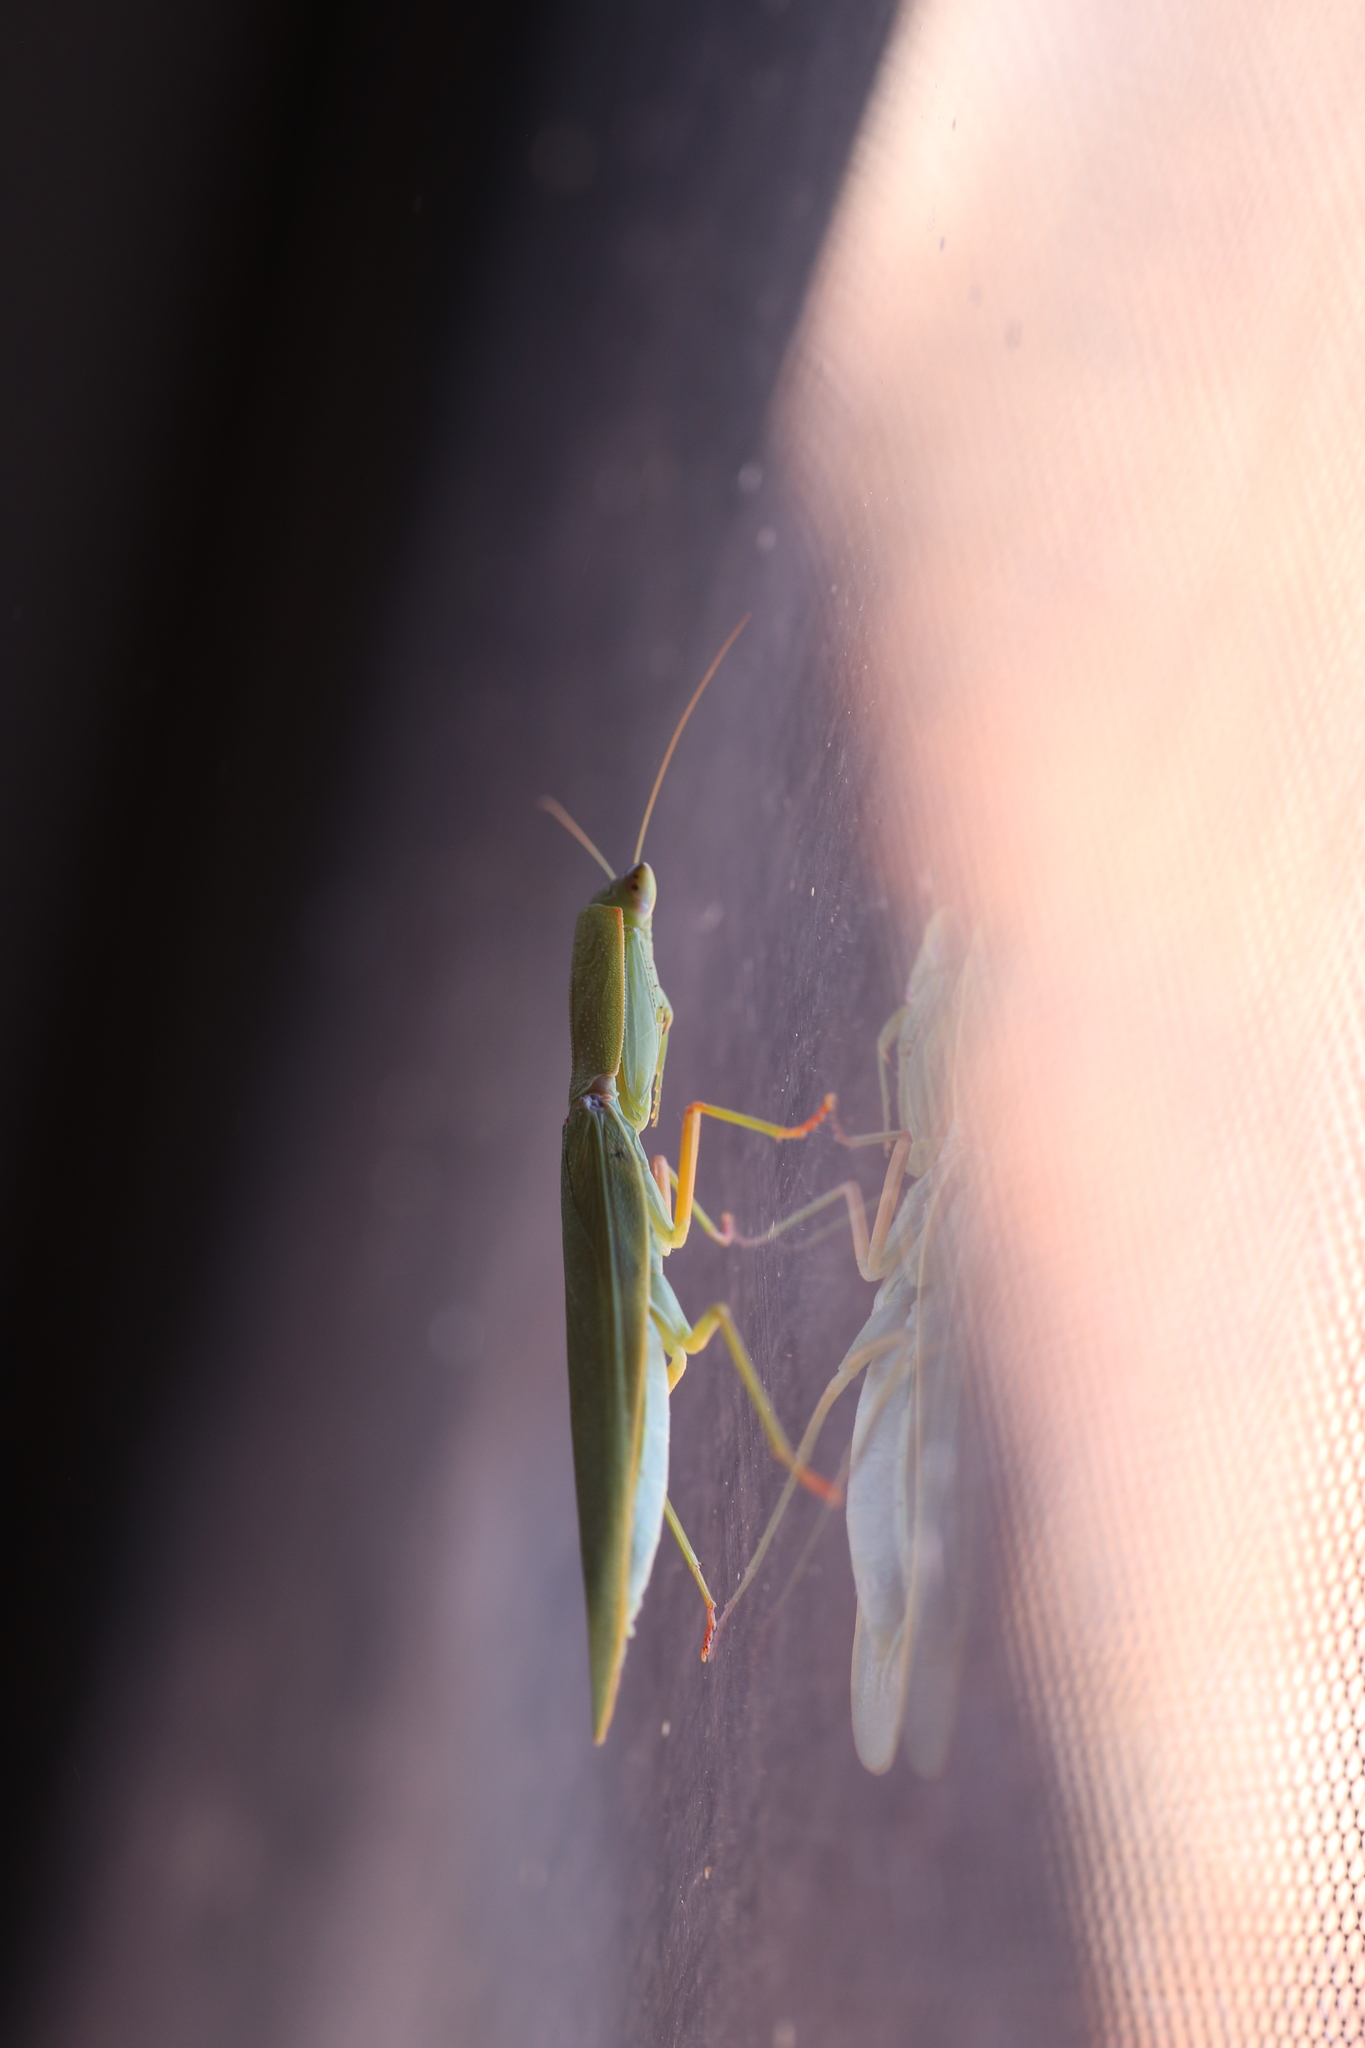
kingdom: Animalia
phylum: Arthropoda
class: Insecta
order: Mantodea
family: Mantidae
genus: Orthodera
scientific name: Orthodera ministralis
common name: Mantis
